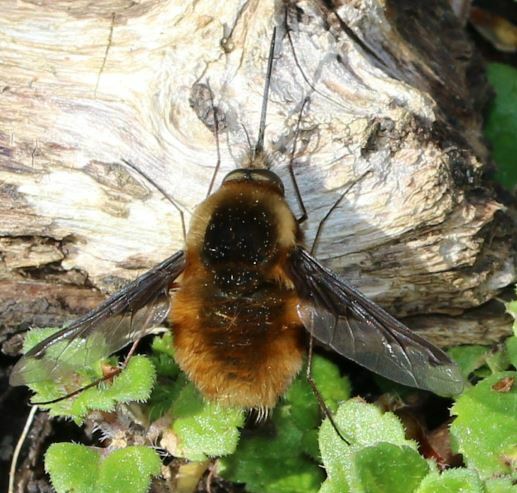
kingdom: Animalia
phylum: Arthropoda
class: Insecta
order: Diptera
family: Bombyliidae
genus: Bombylius
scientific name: Bombylius major
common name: Bee fly
